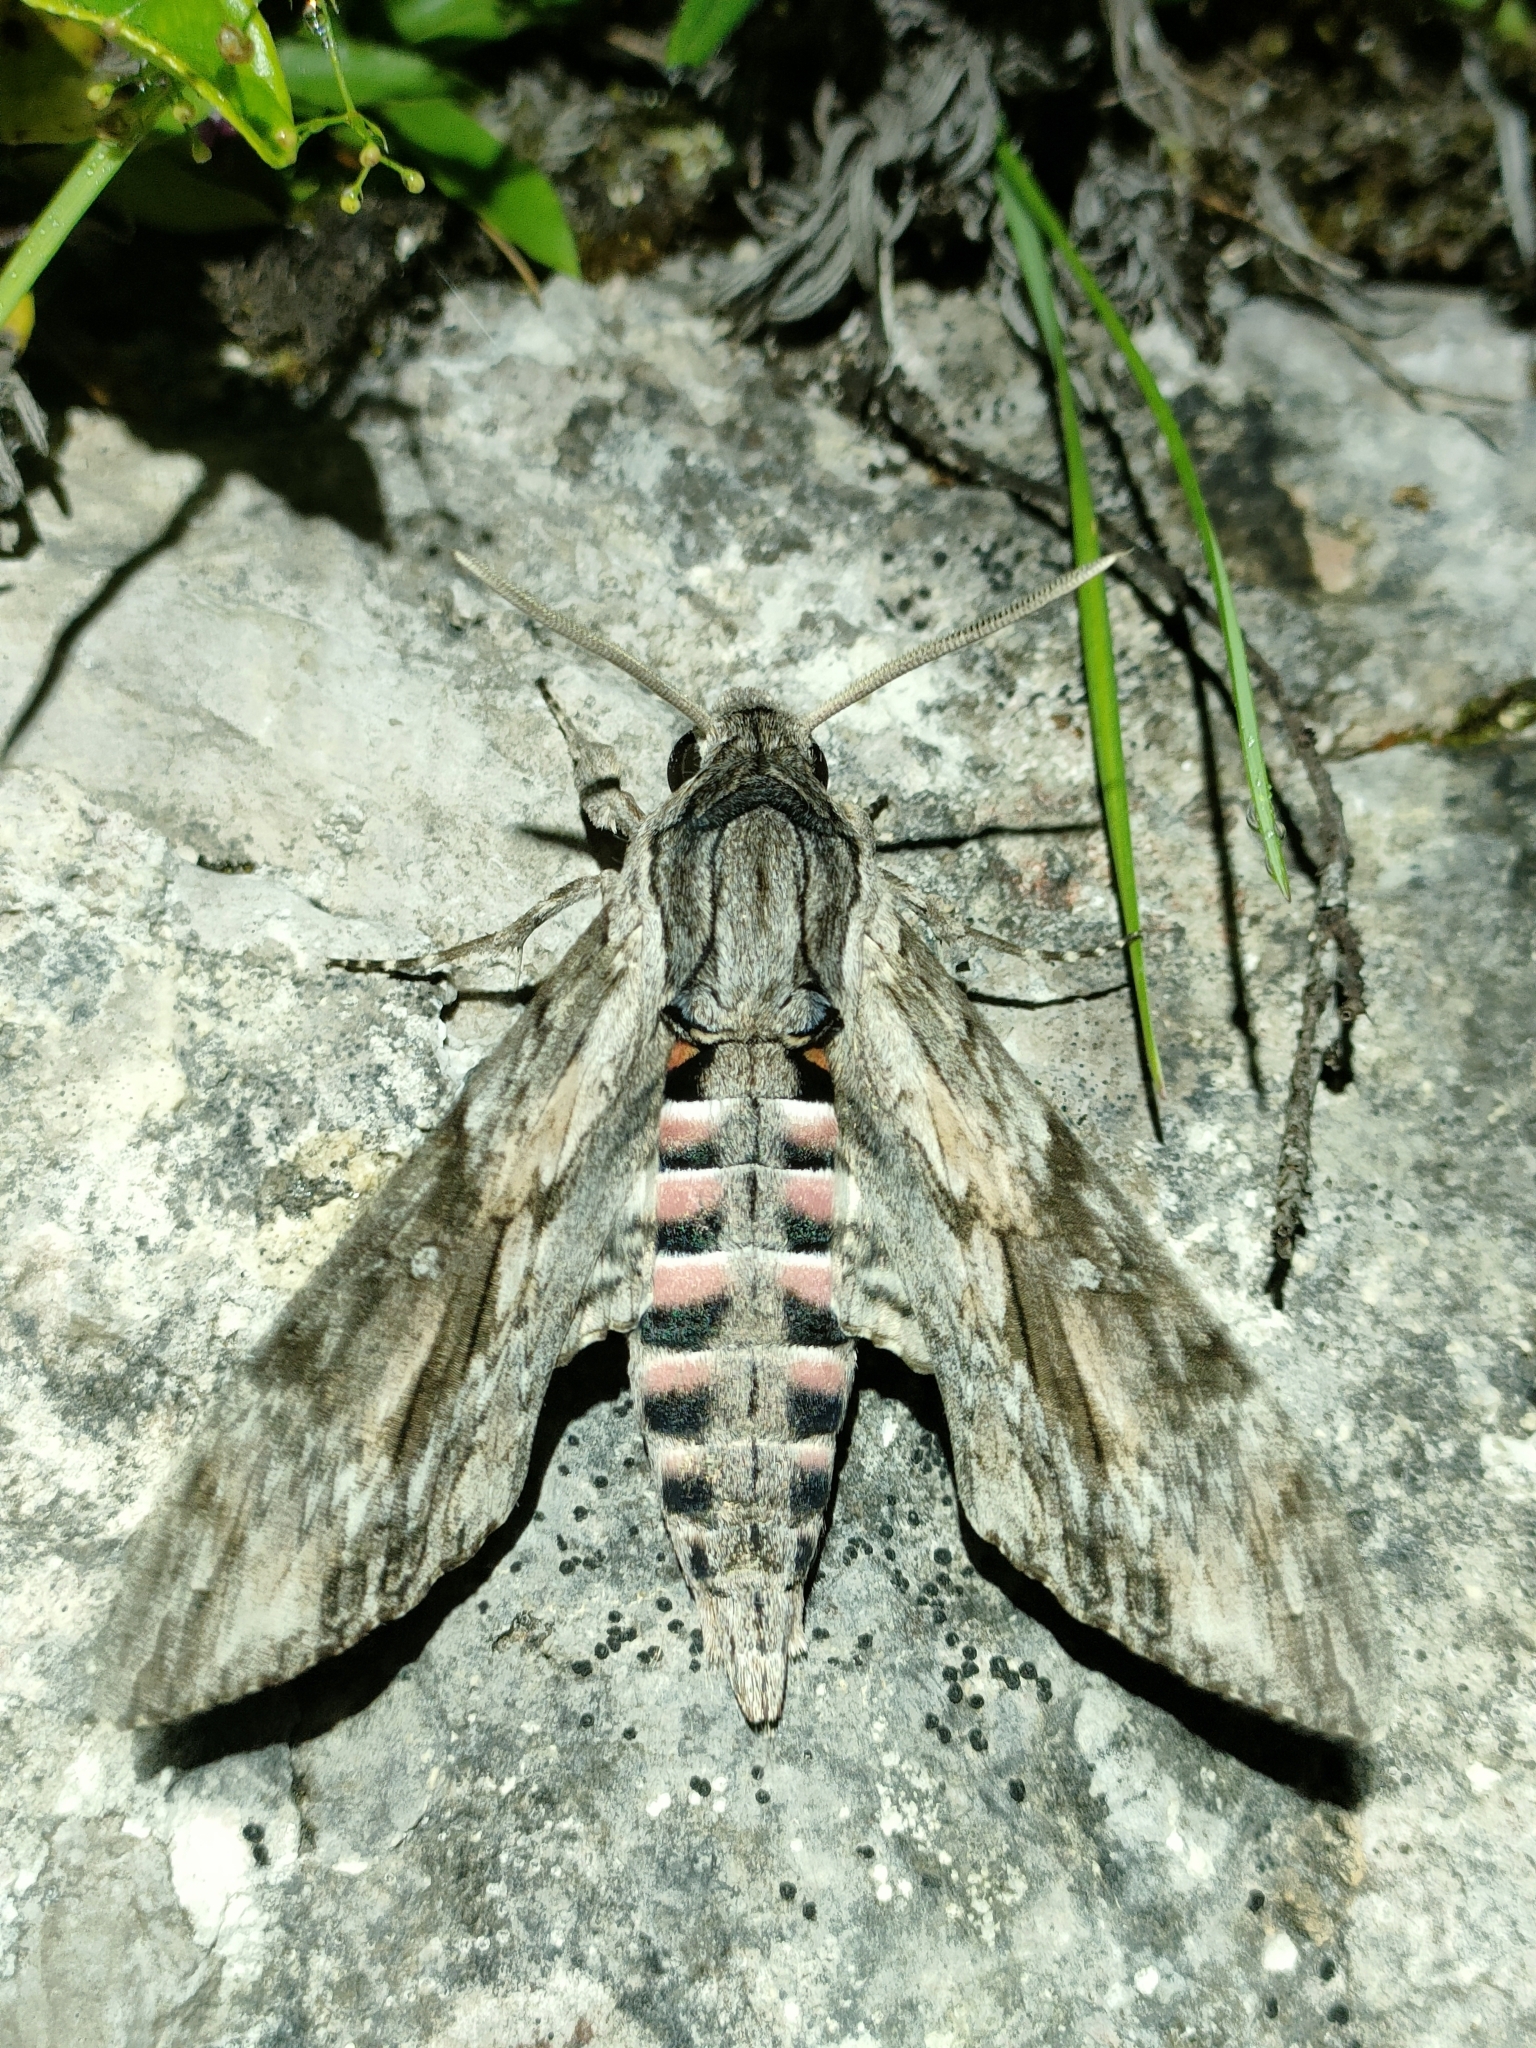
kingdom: Animalia
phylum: Arthropoda
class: Insecta
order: Lepidoptera
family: Sphingidae
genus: Agrius
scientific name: Agrius convolvuli
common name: Convolvulus hawkmoth
